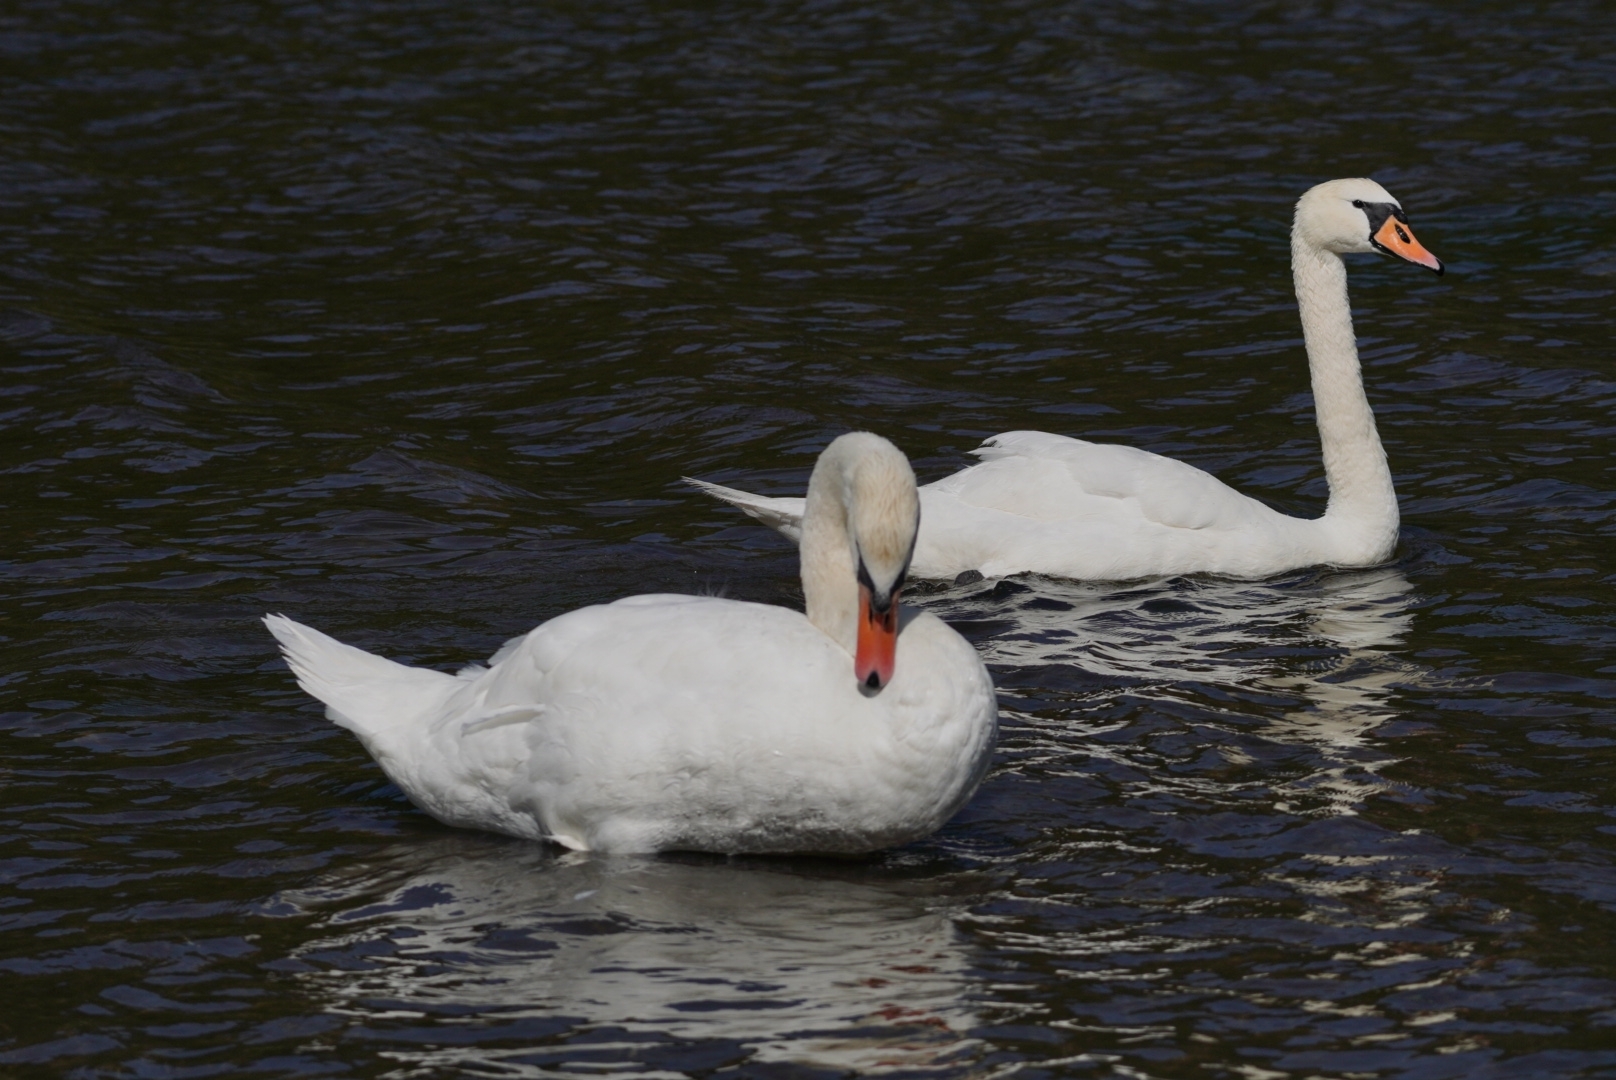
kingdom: Animalia
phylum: Chordata
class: Aves
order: Anseriformes
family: Anatidae
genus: Cygnus
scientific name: Cygnus olor
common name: Mute swan
